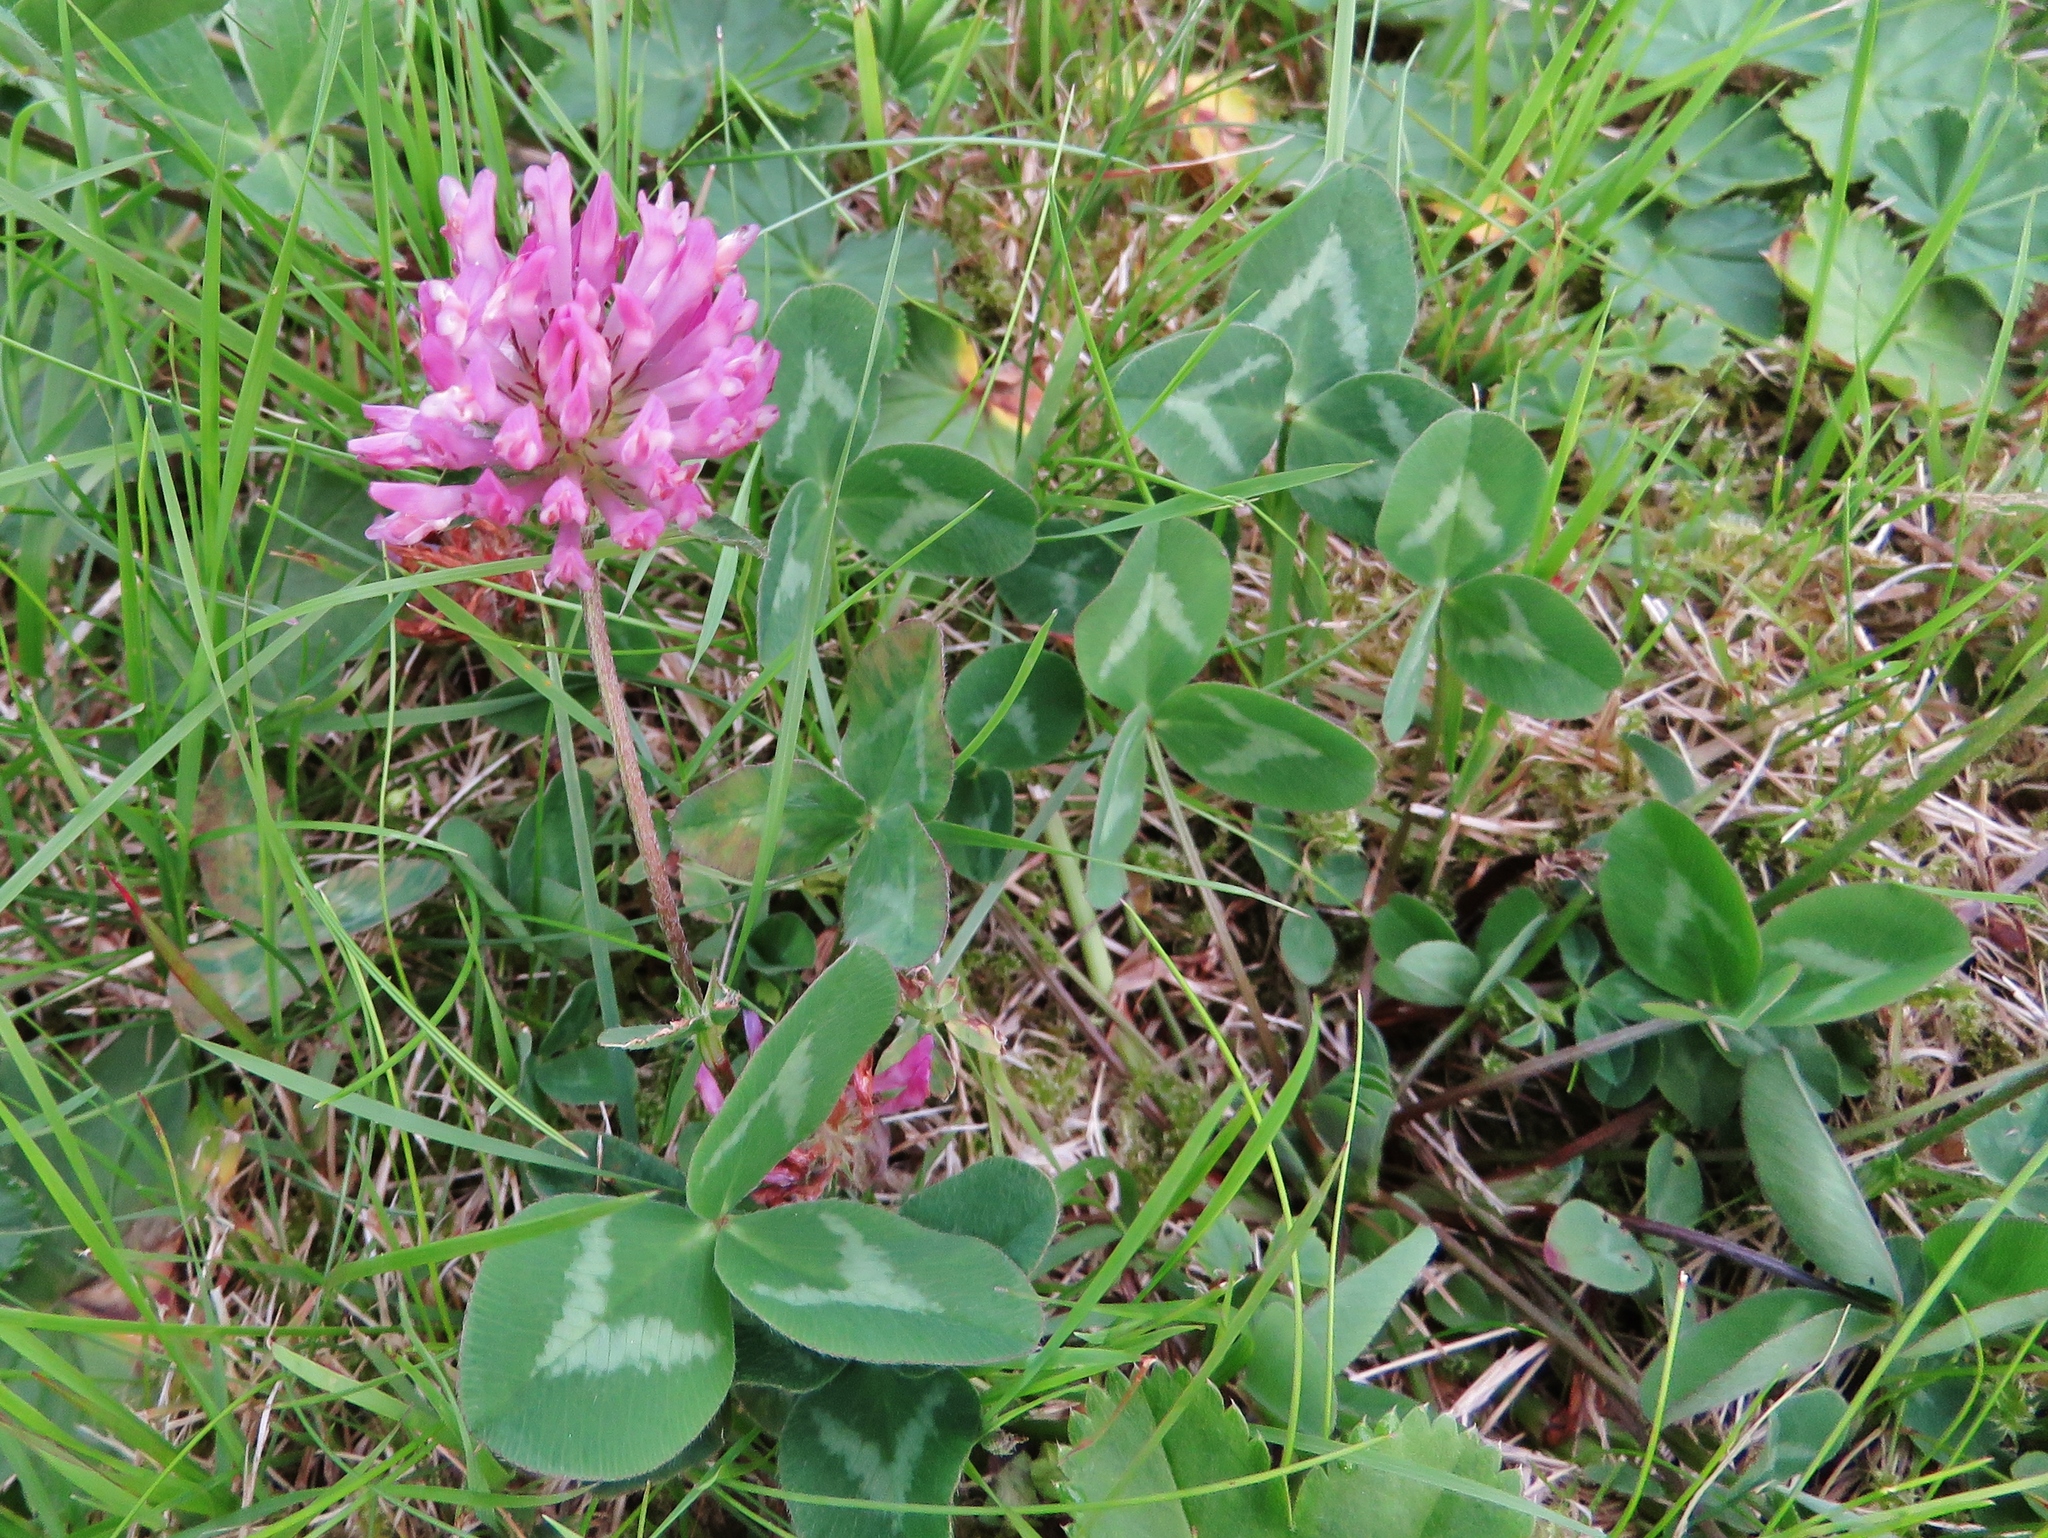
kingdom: Plantae
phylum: Tracheophyta
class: Magnoliopsida
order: Fabales
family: Fabaceae
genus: Trifolium
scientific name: Trifolium pratense
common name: Red clover
